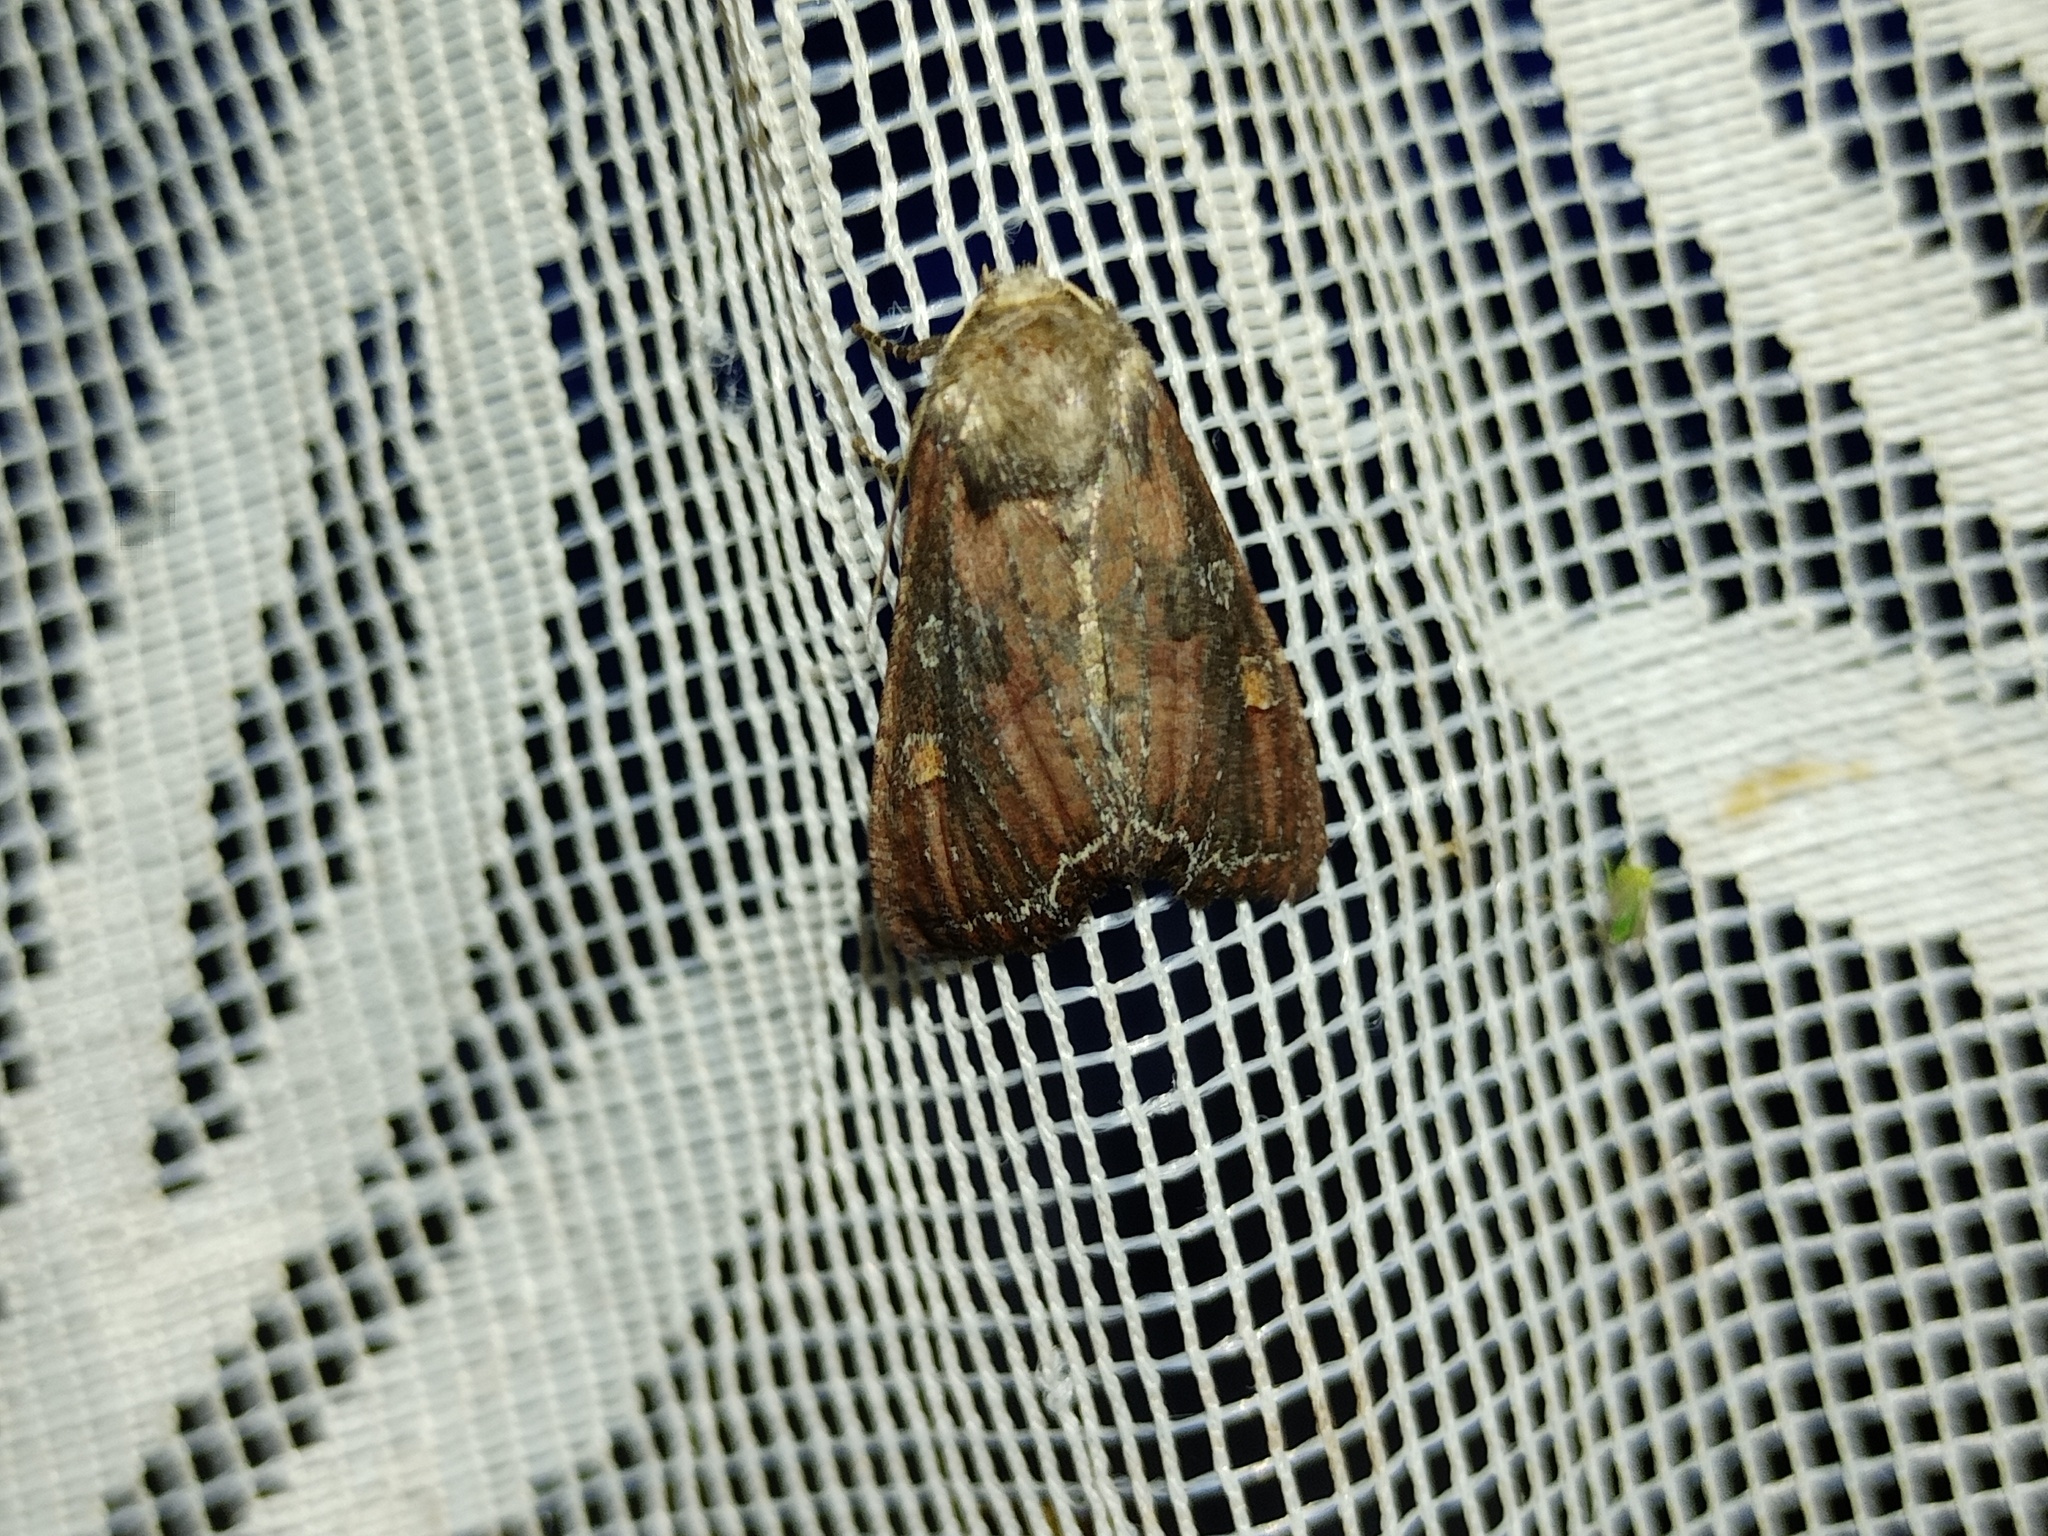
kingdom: Animalia
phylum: Arthropoda
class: Insecta
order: Lepidoptera
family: Noctuidae
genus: Lacanobia
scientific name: Lacanobia oleracea
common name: Bright-line brown-eye
